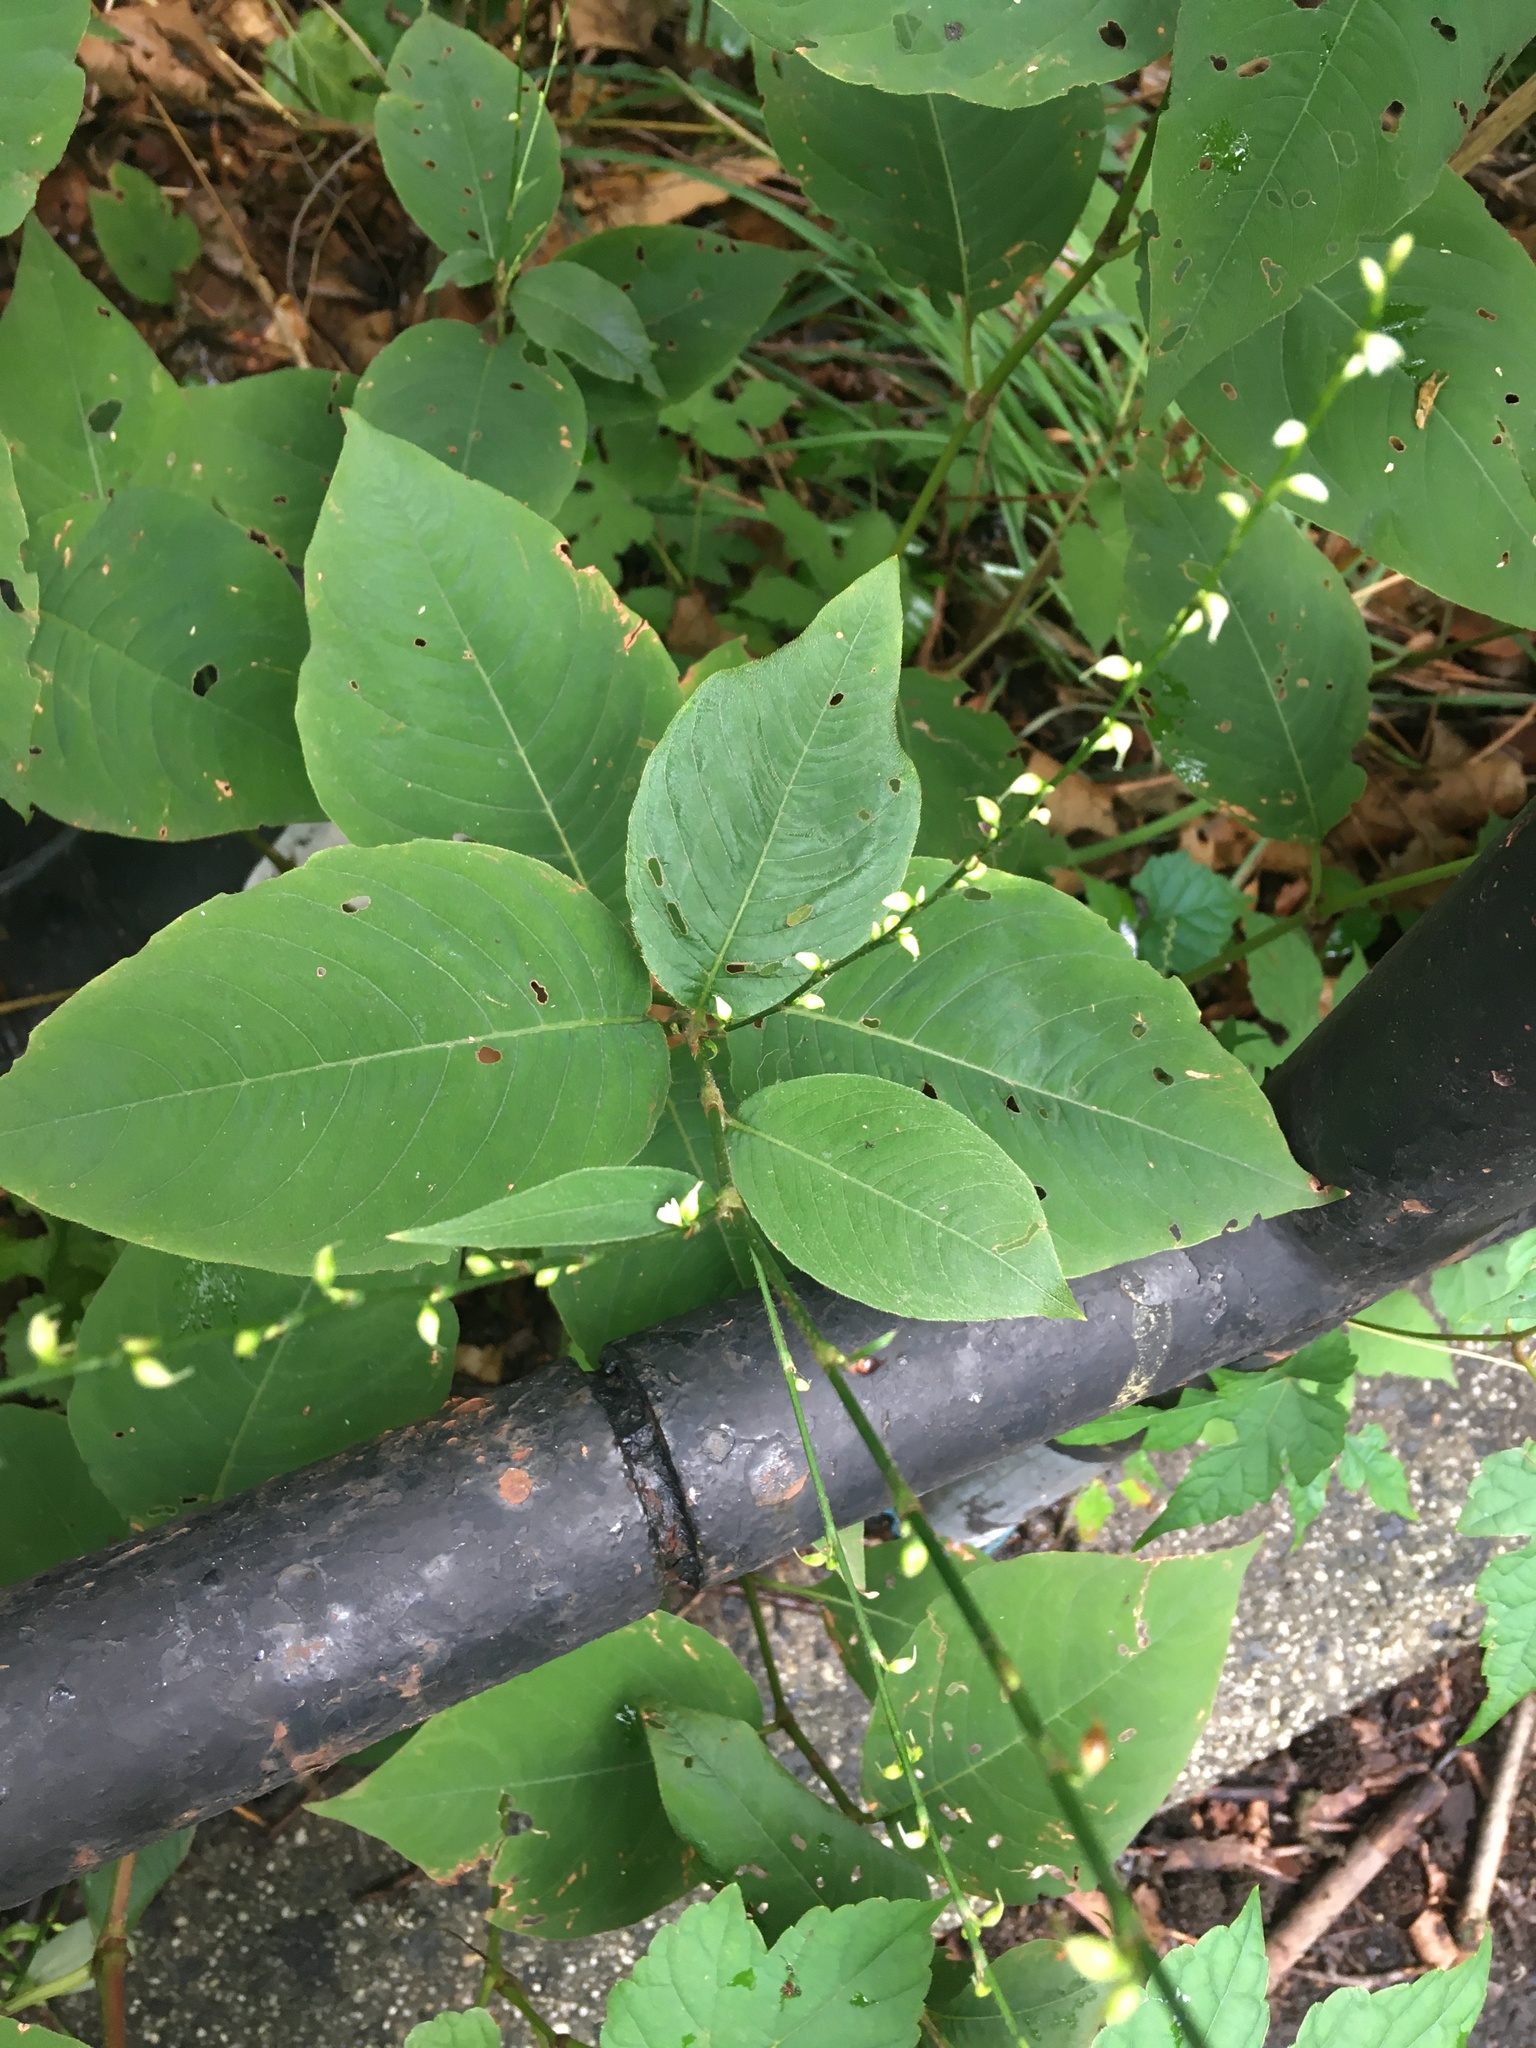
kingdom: Plantae
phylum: Tracheophyta
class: Magnoliopsida
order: Caryophyllales
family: Polygonaceae
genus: Persicaria
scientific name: Persicaria virginiana
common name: Jumpseed
